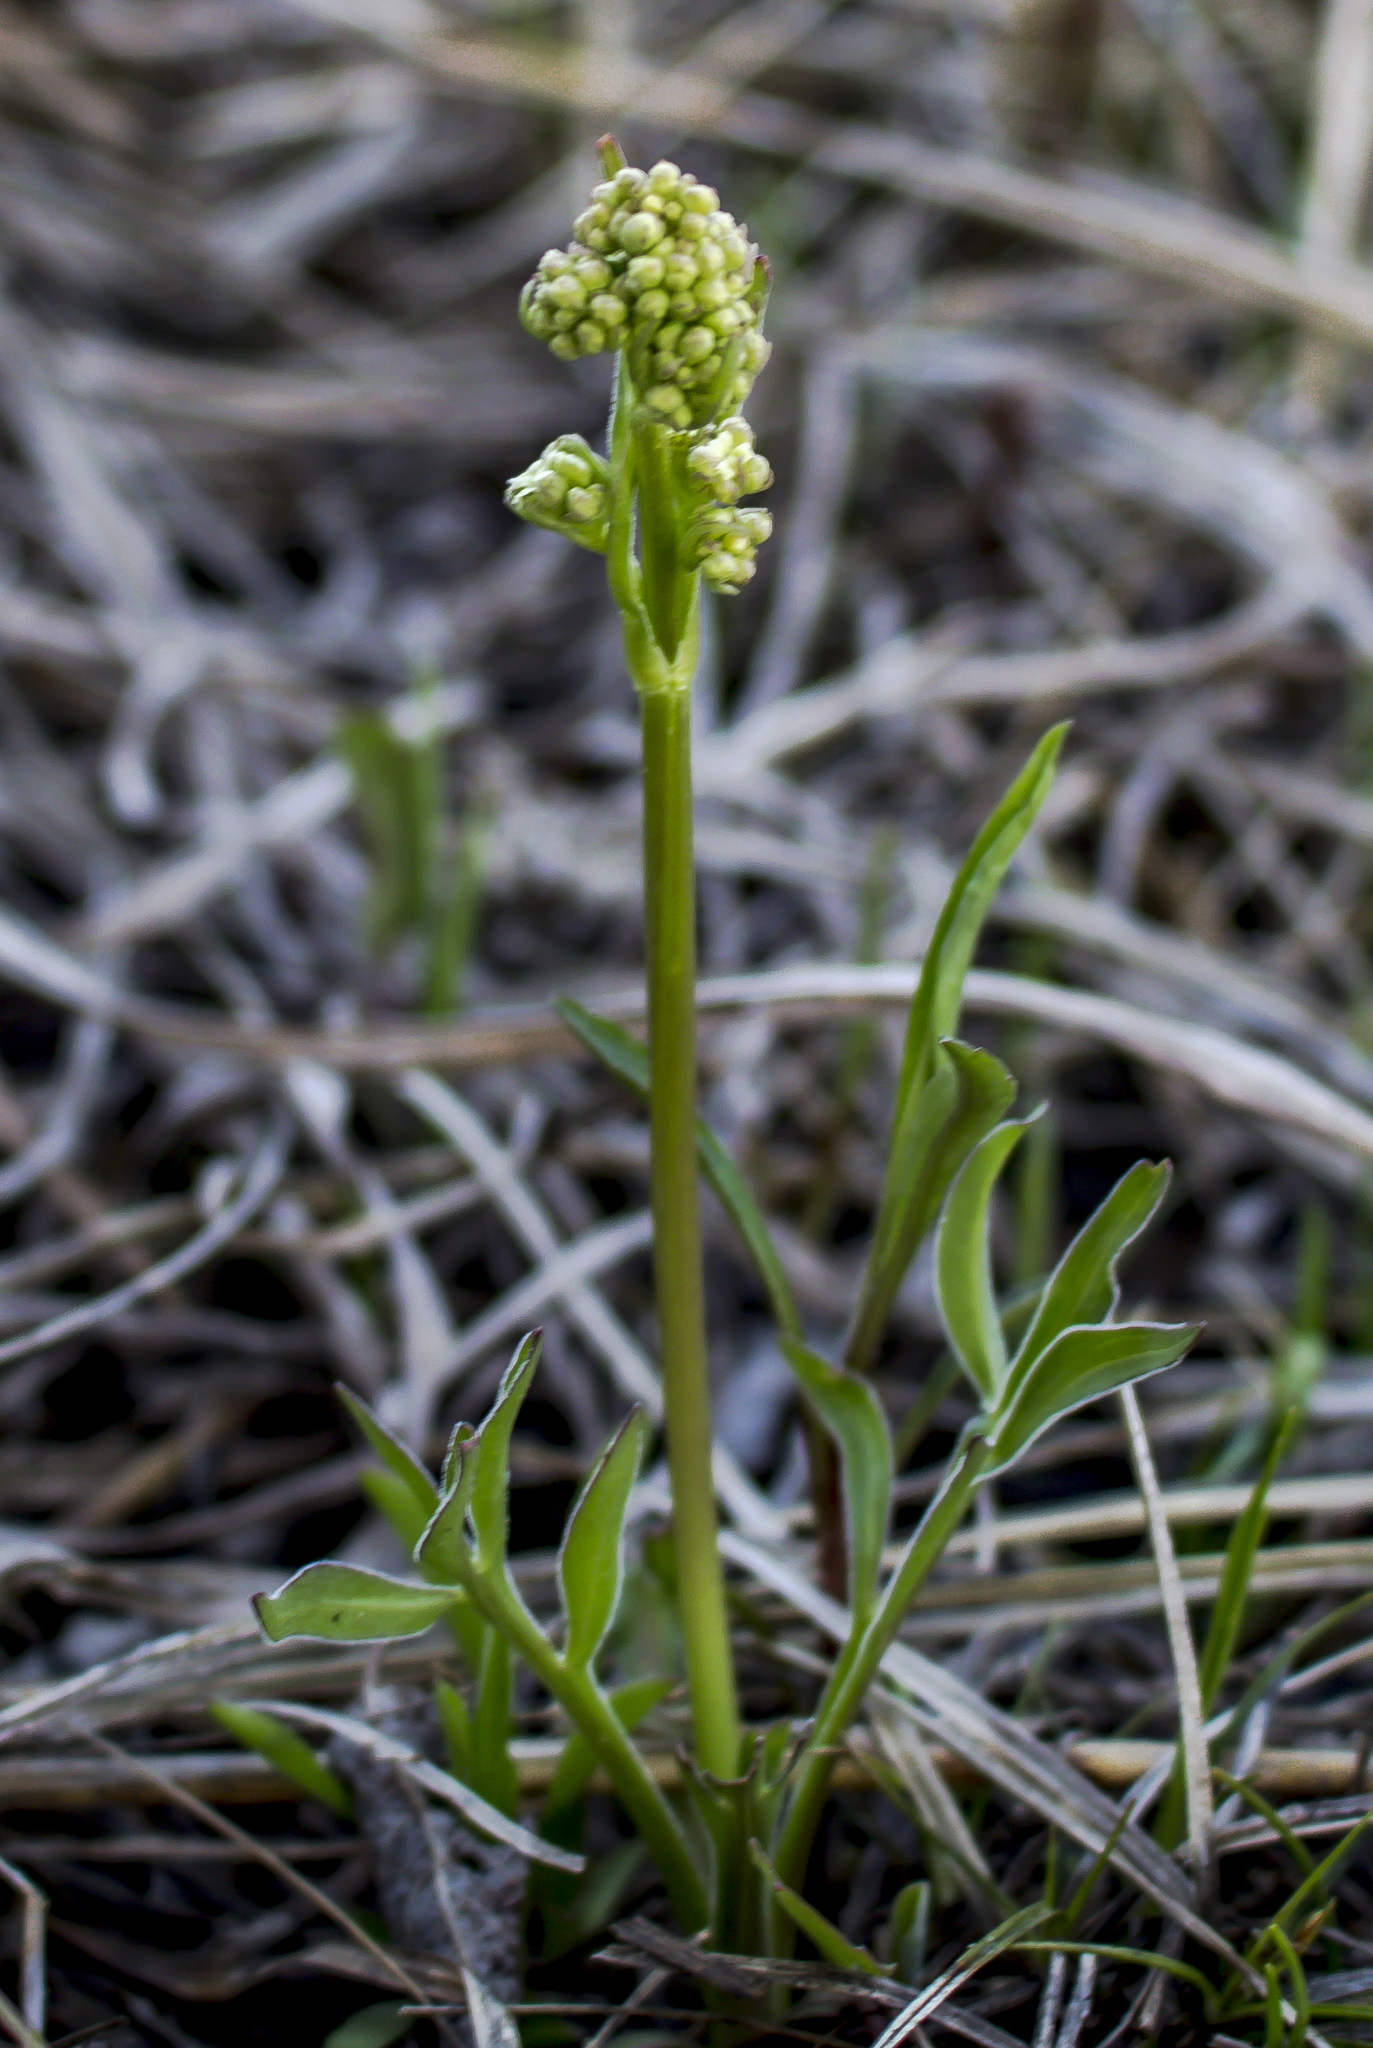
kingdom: Plantae
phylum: Tracheophyta
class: Magnoliopsida
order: Dipsacales
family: Caprifoliaceae
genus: Valeriana
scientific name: Valeriana edulis
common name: Taproot valerian
